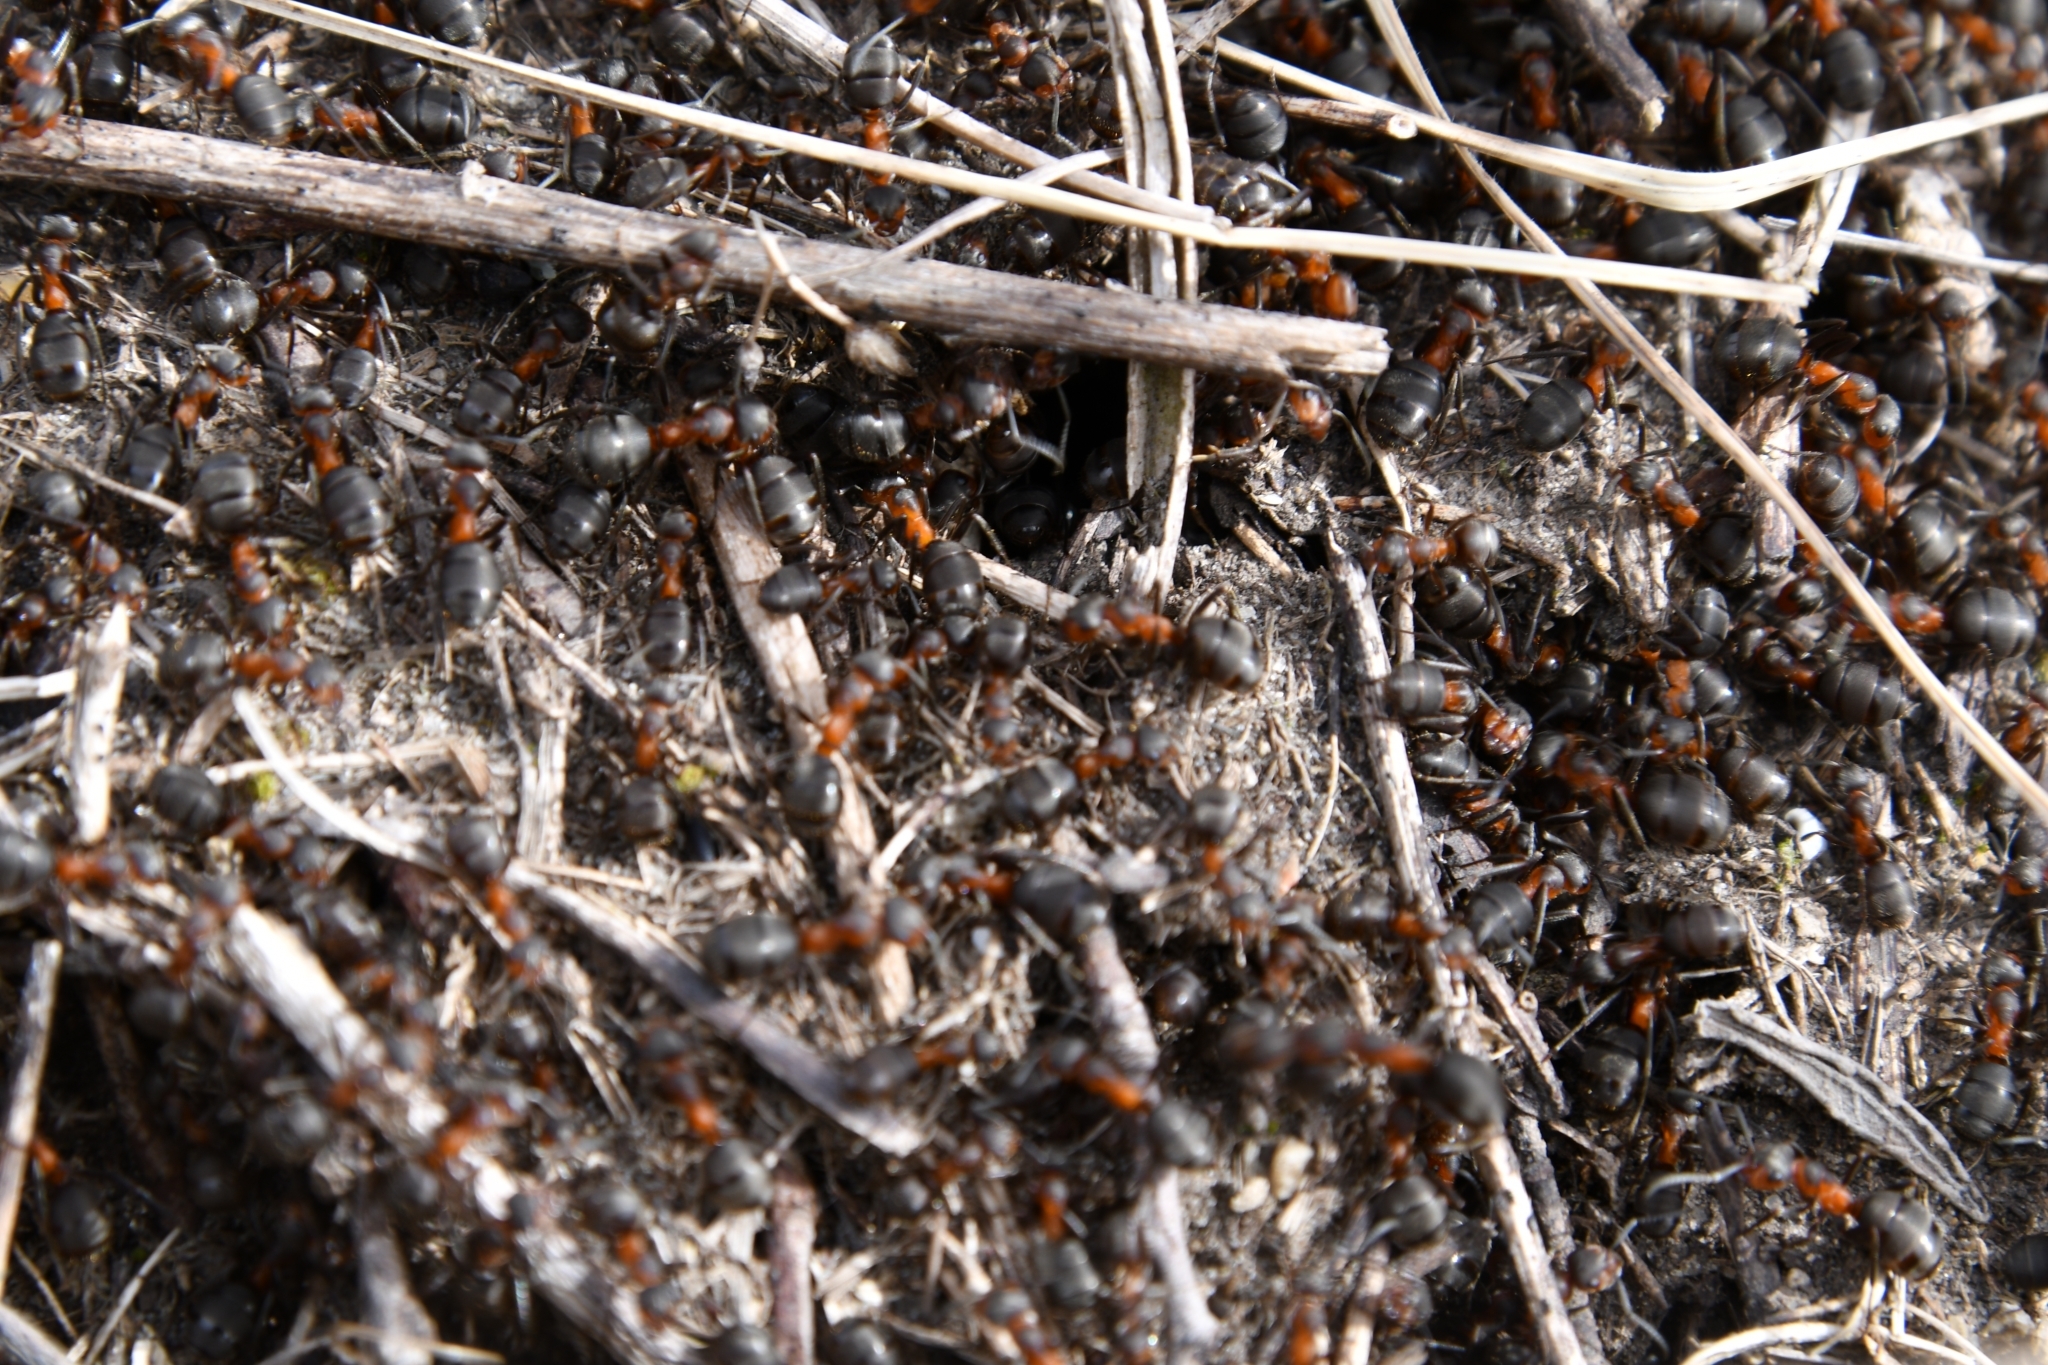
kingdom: Animalia
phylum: Arthropoda
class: Insecta
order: Hymenoptera
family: Formicidae
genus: Formica
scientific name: Formica pratensis
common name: European red wood ant
